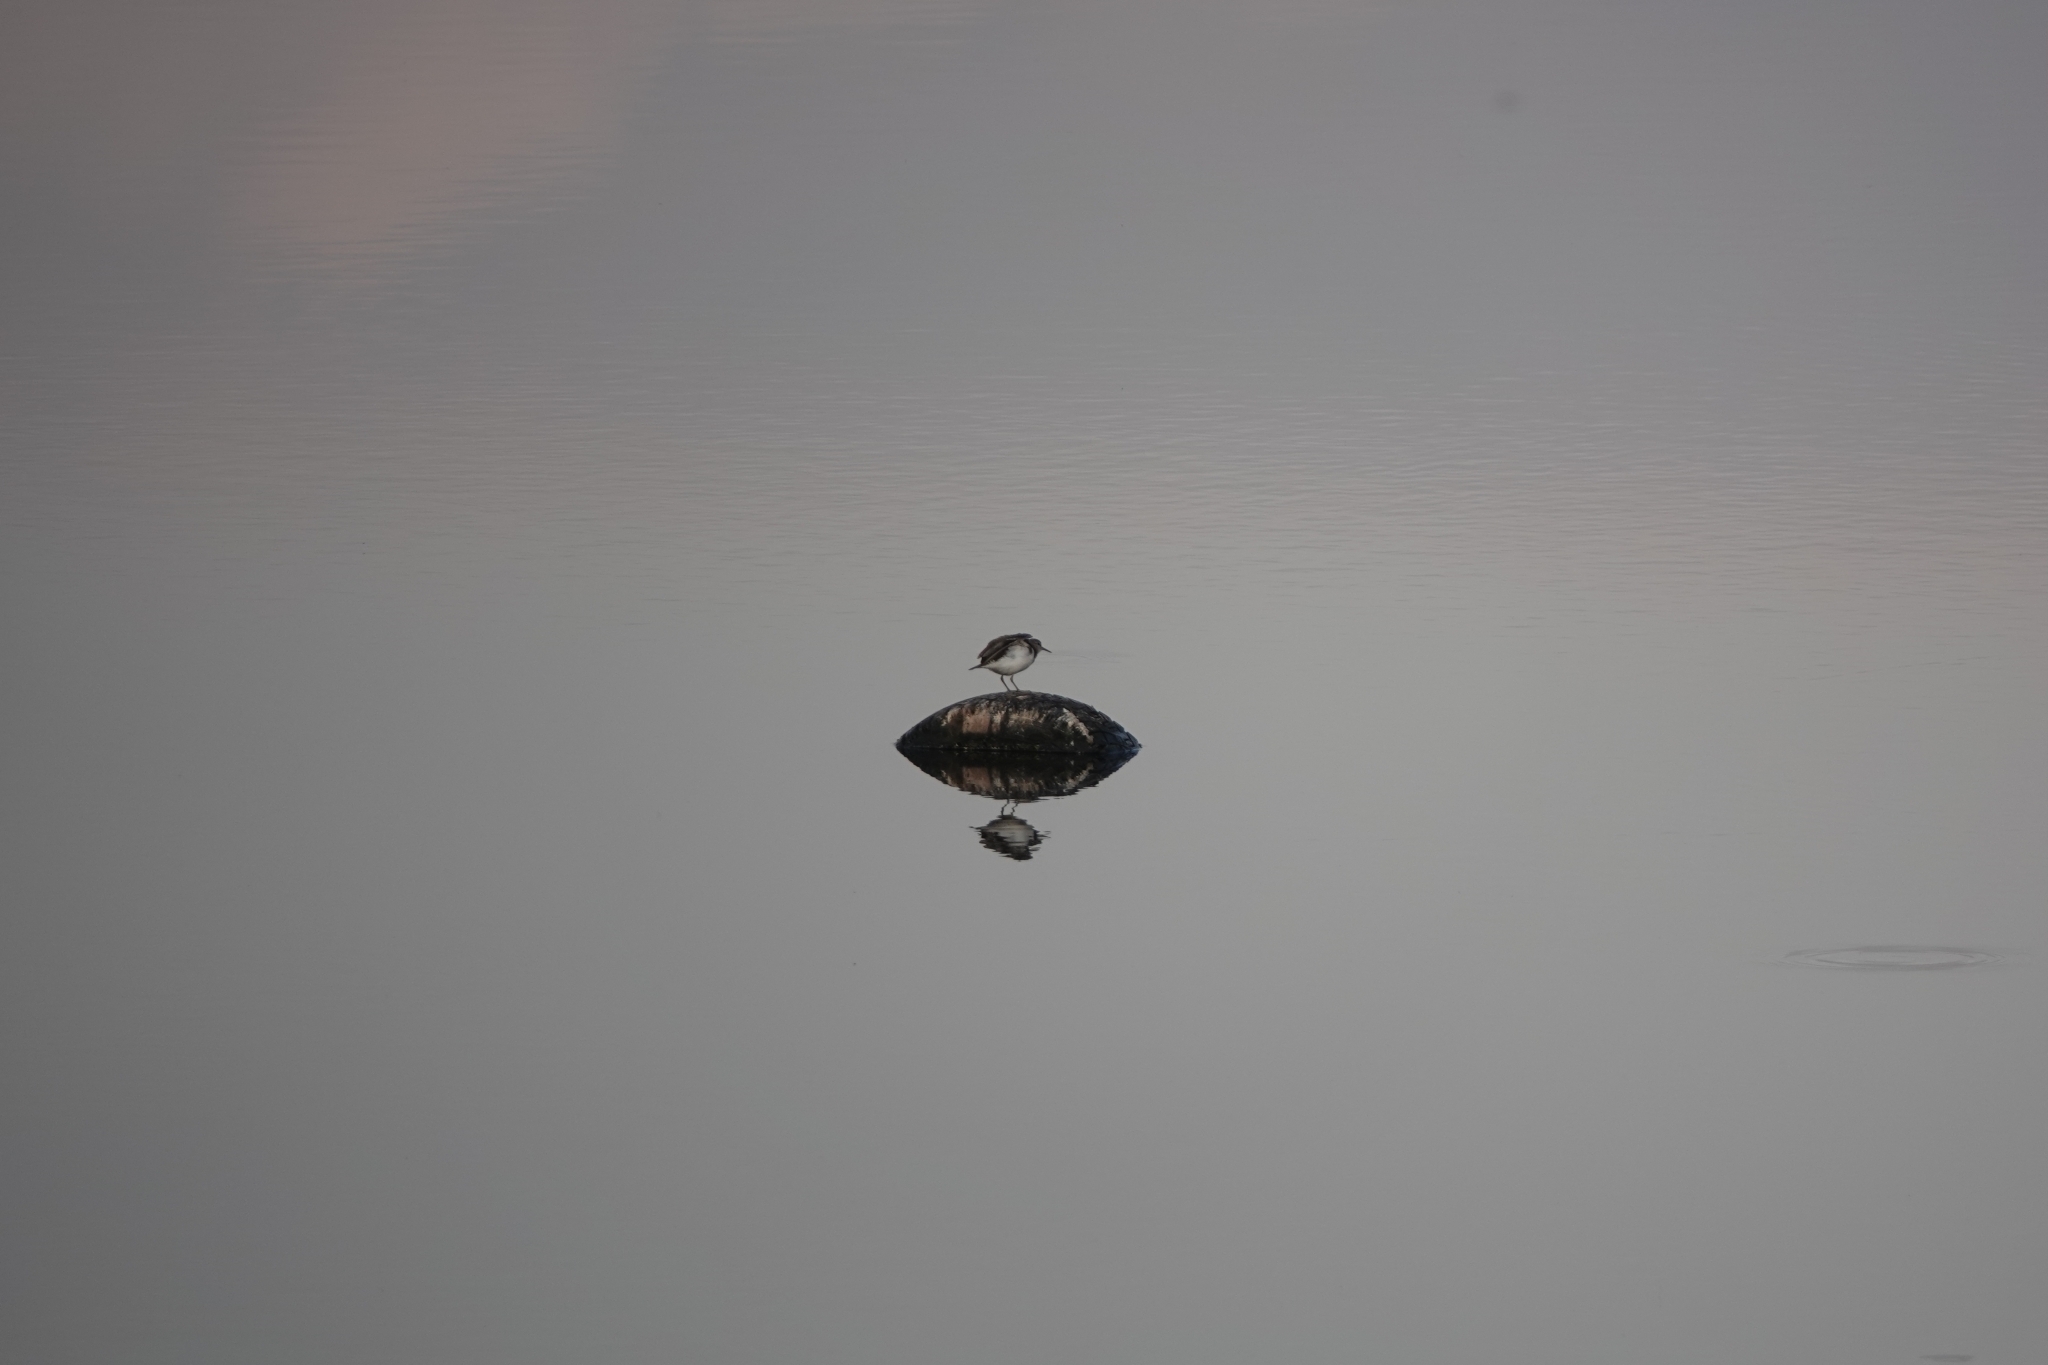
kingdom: Animalia
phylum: Chordata
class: Aves
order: Charadriiformes
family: Scolopacidae
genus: Actitis
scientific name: Actitis hypoleucos
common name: Common sandpiper
